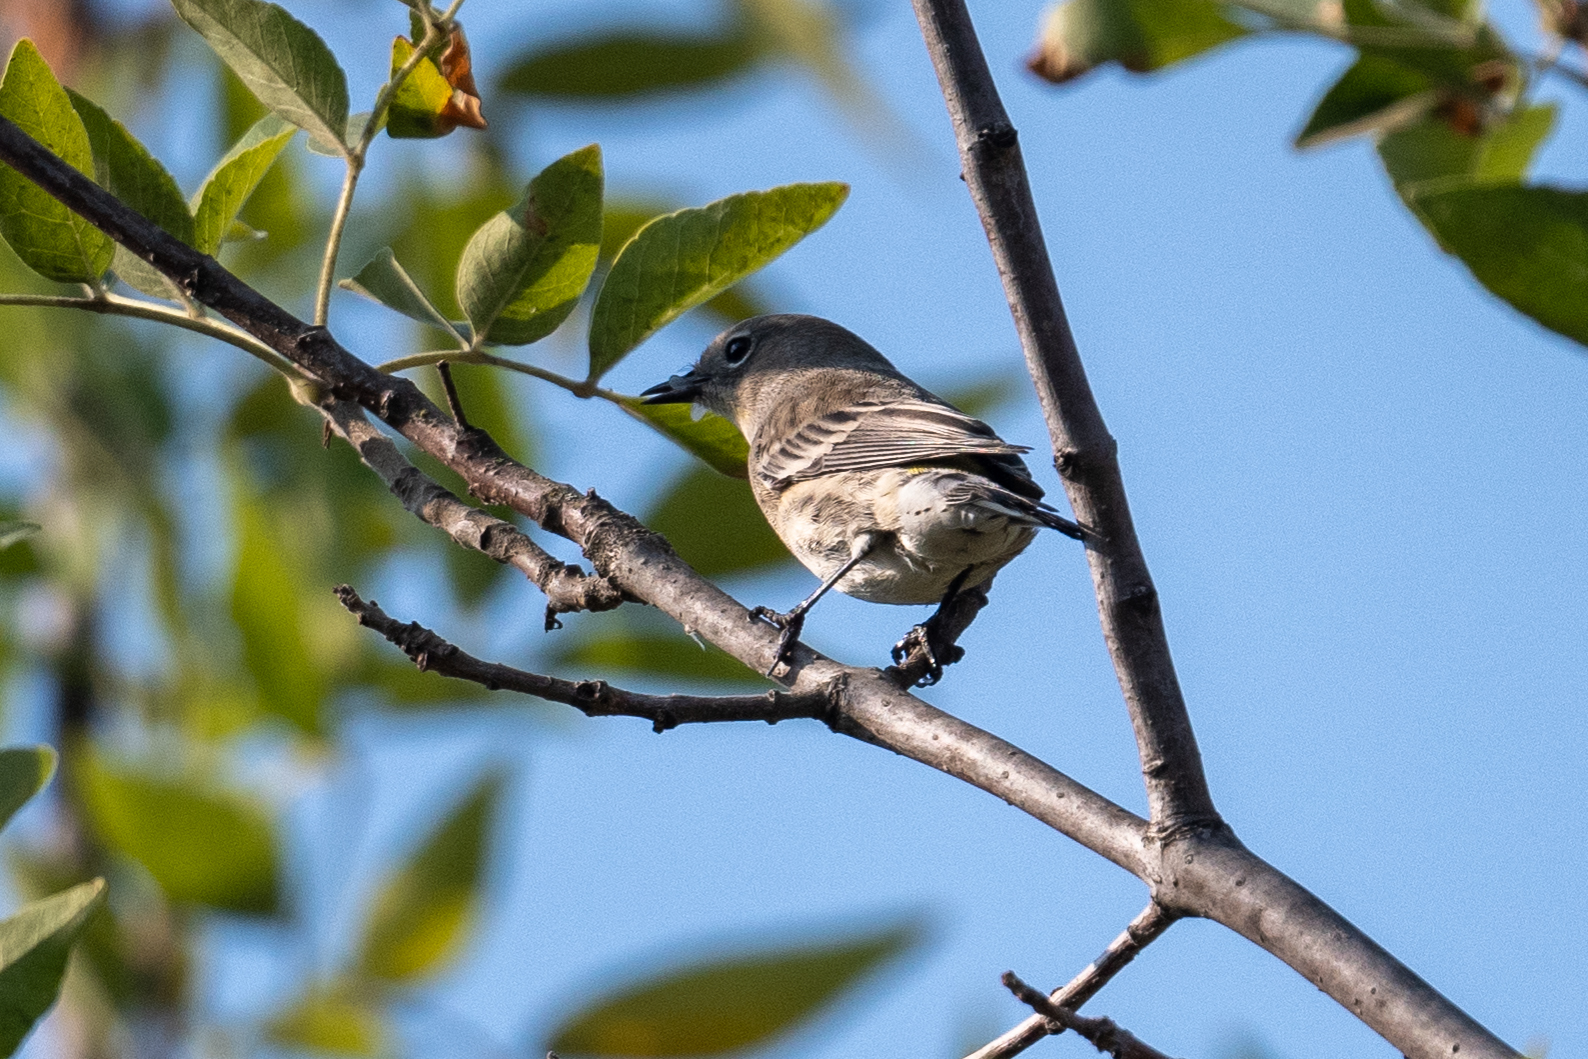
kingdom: Animalia
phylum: Chordata
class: Aves
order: Passeriformes
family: Parulidae
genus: Setophaga
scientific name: Setophaga coronata
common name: Myrtle warbler
